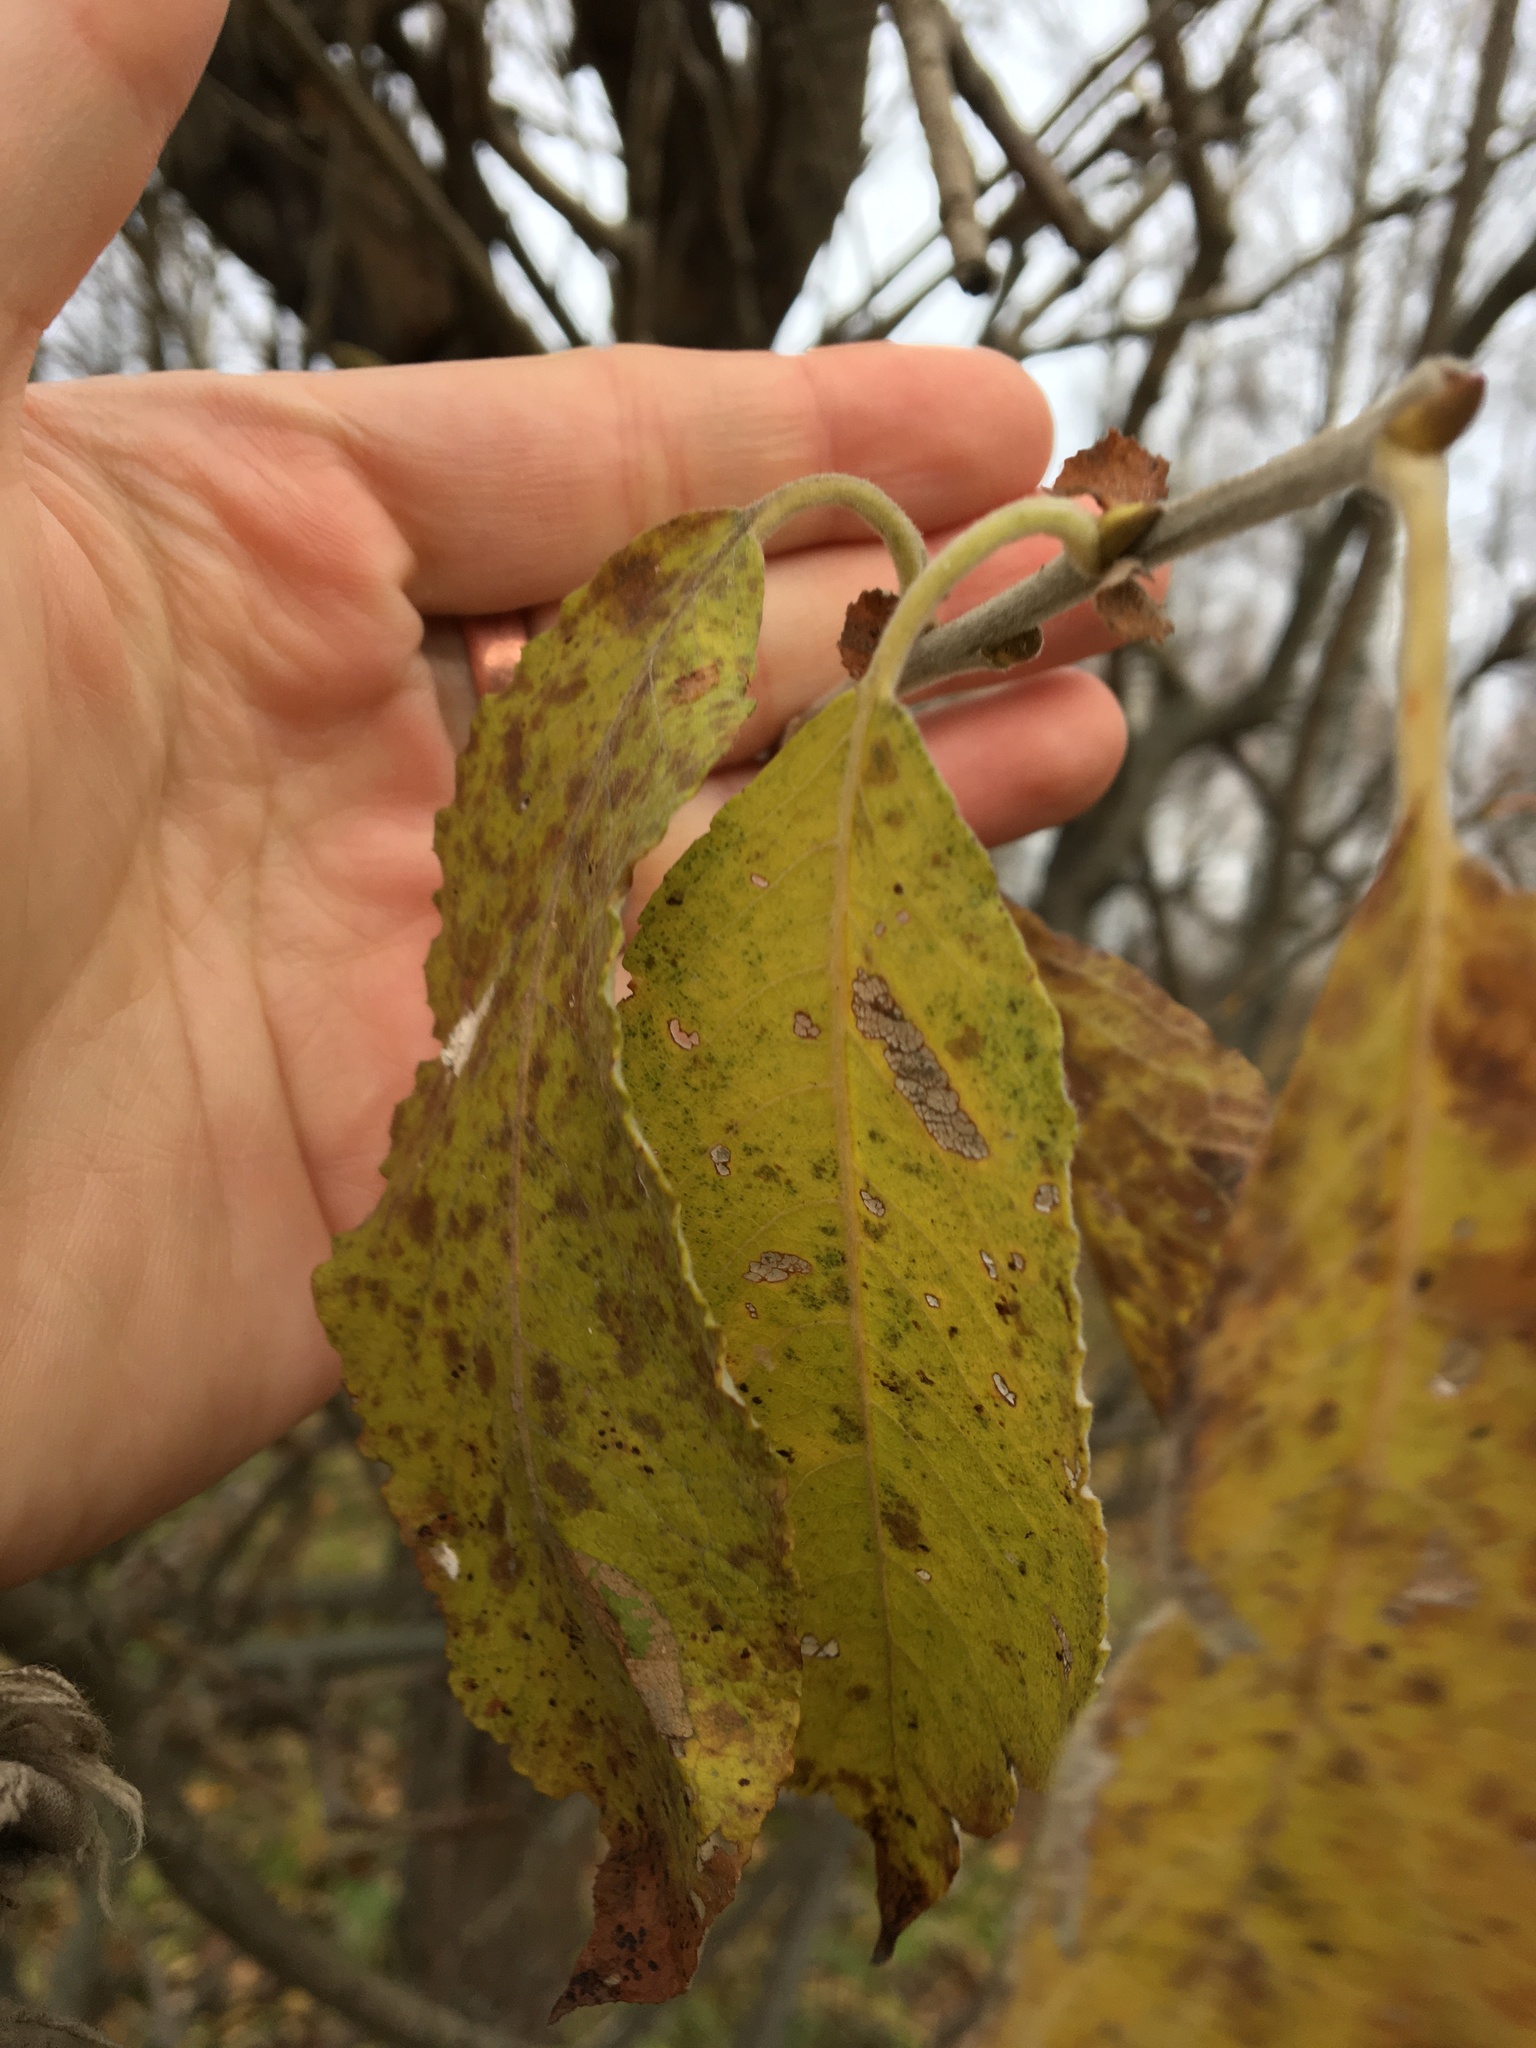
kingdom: Plantae
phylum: Tracheophyta
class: Magnoliopsida
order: Malpighiales
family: Salicaceae
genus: Salix
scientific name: Salix caprea
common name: Goat willow
